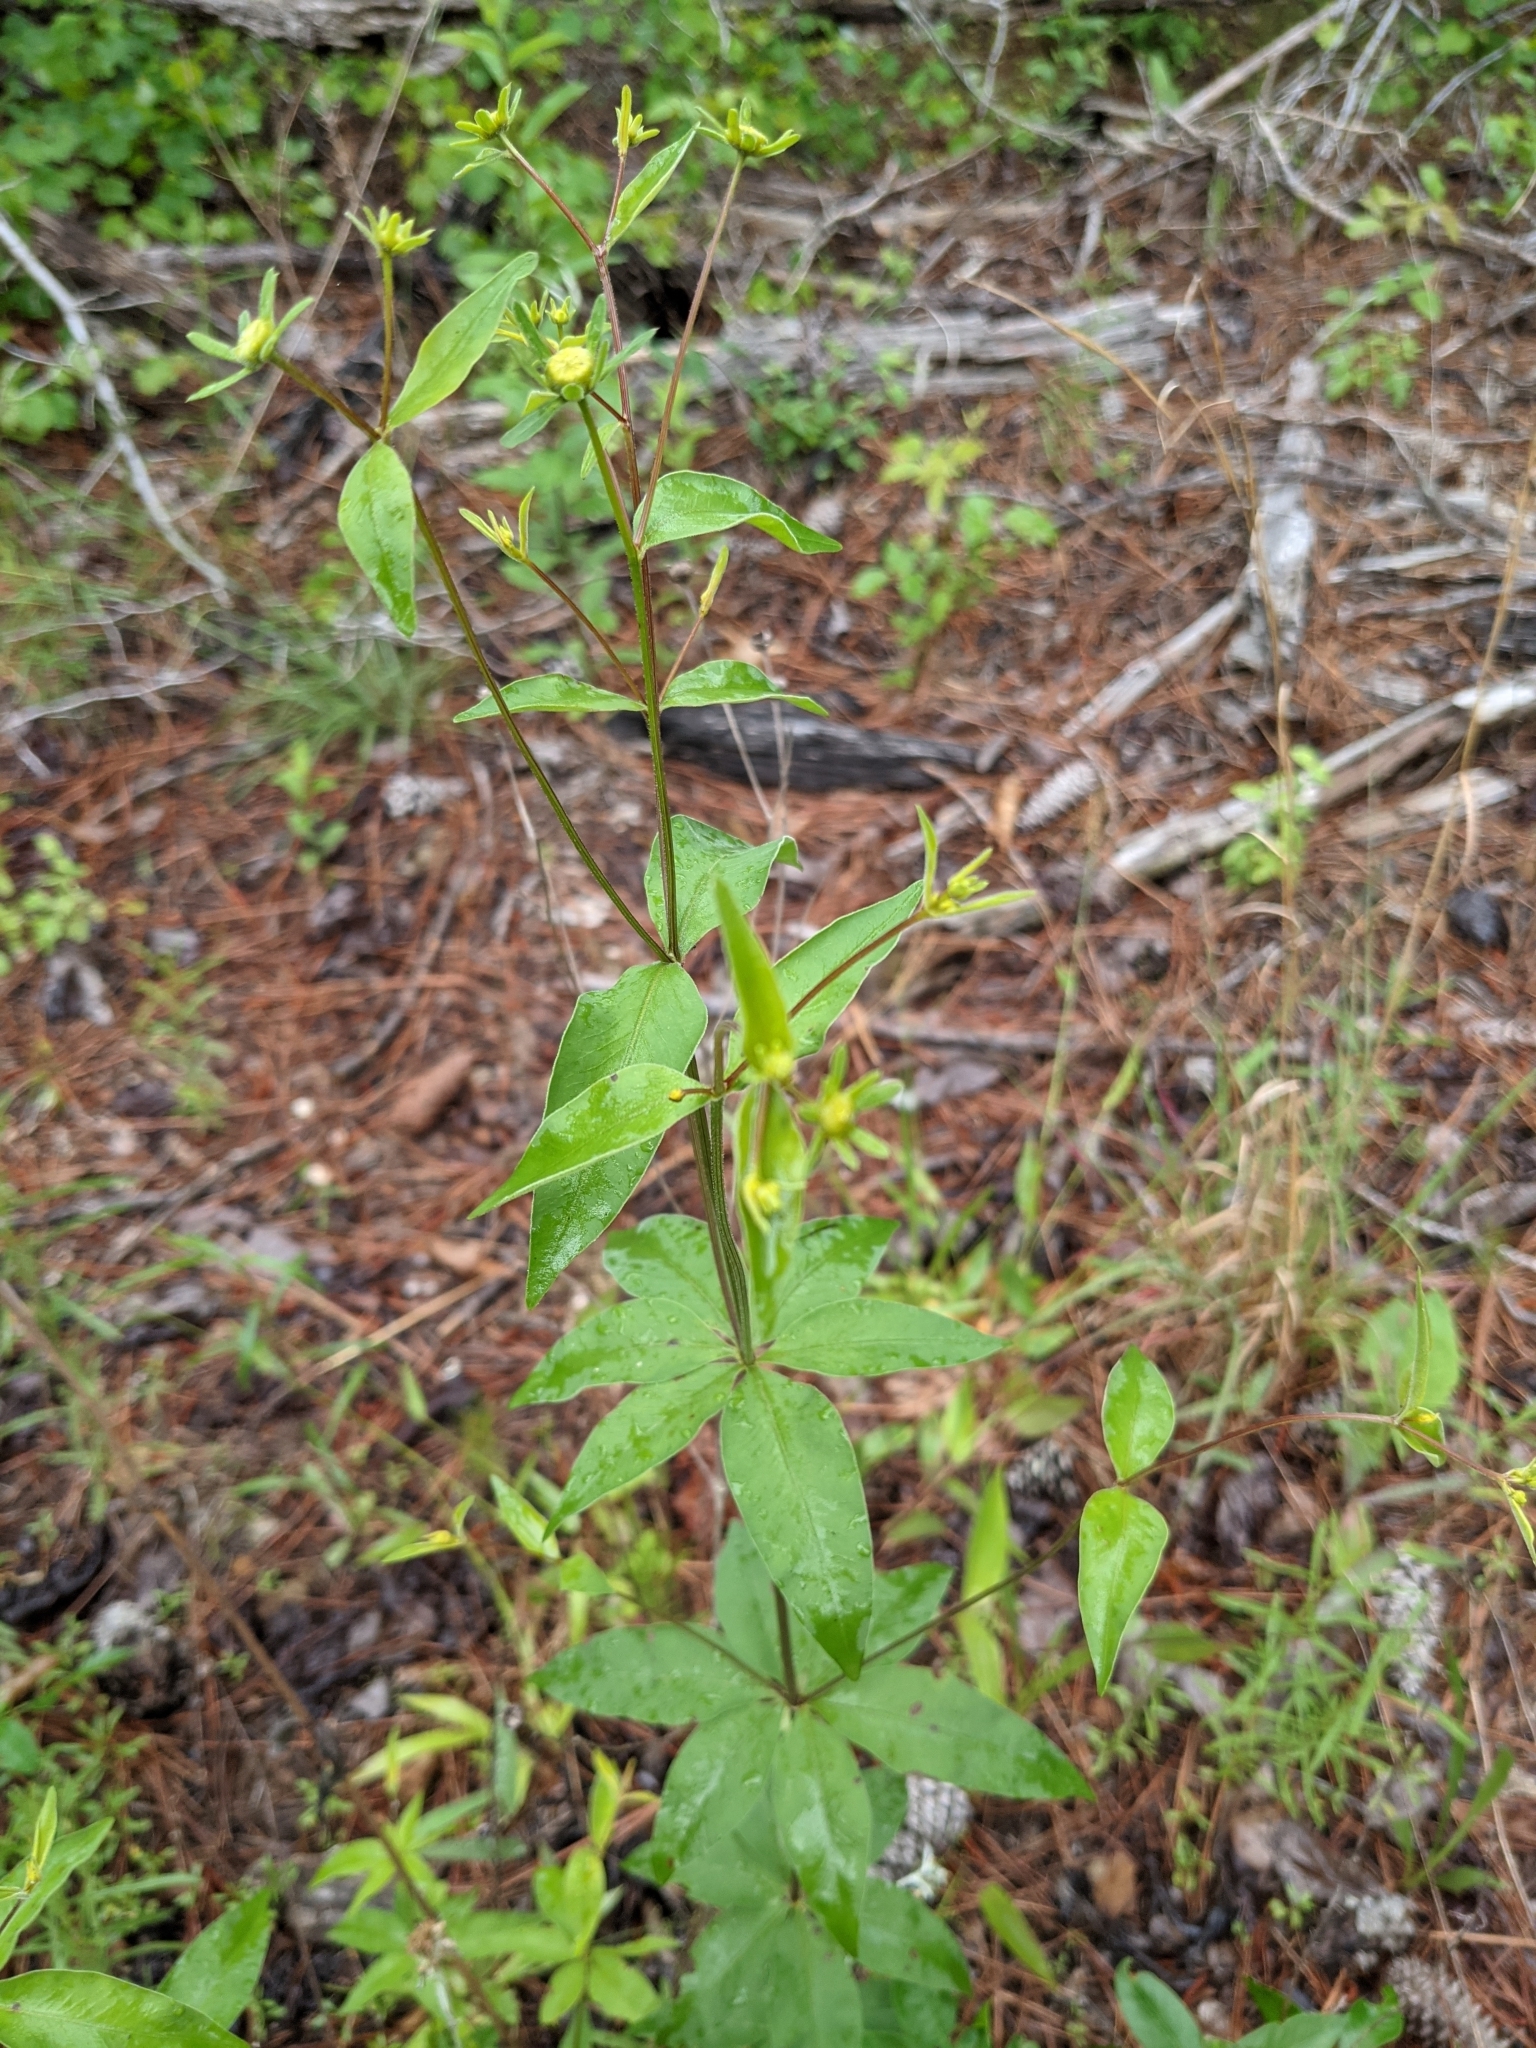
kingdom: Plantae
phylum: Tracheophyta
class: Magnoliopsida
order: Asterales
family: Asteraceae
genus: Coreopsis
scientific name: Coreopsis major
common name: Forest tickseed
